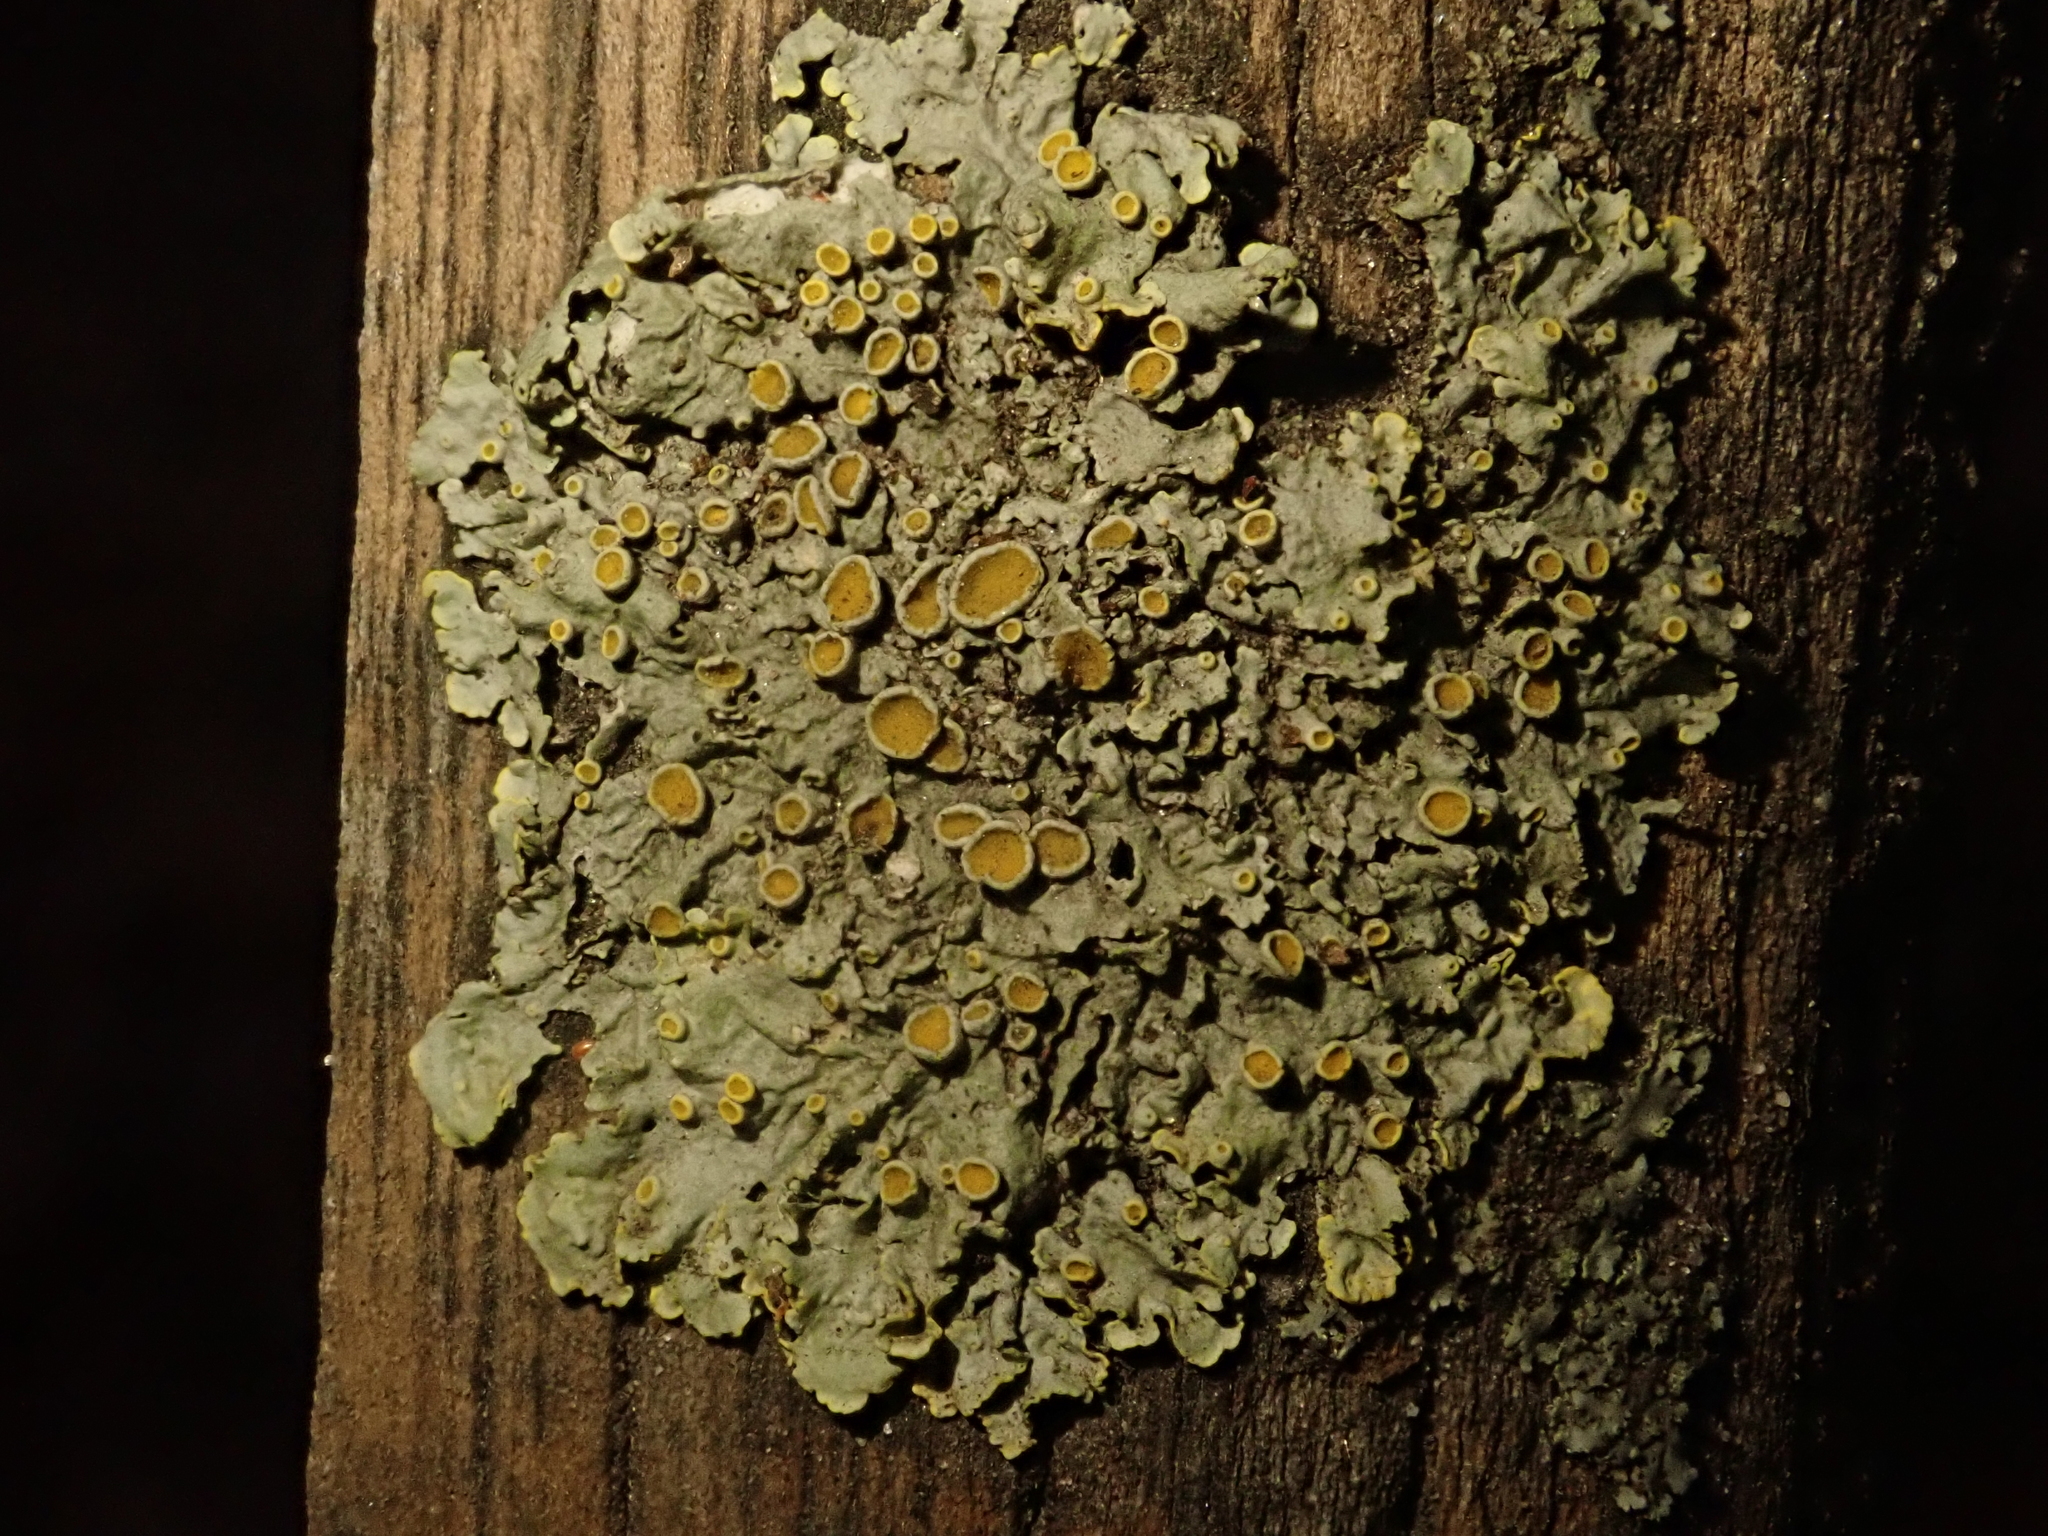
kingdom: Fungi
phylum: Ascomycota
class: Lecanoromycetes
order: Teloschistales
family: Teloschistaceae
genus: Xanthoria
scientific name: Xanthoria parietina
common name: Common orange lichen
